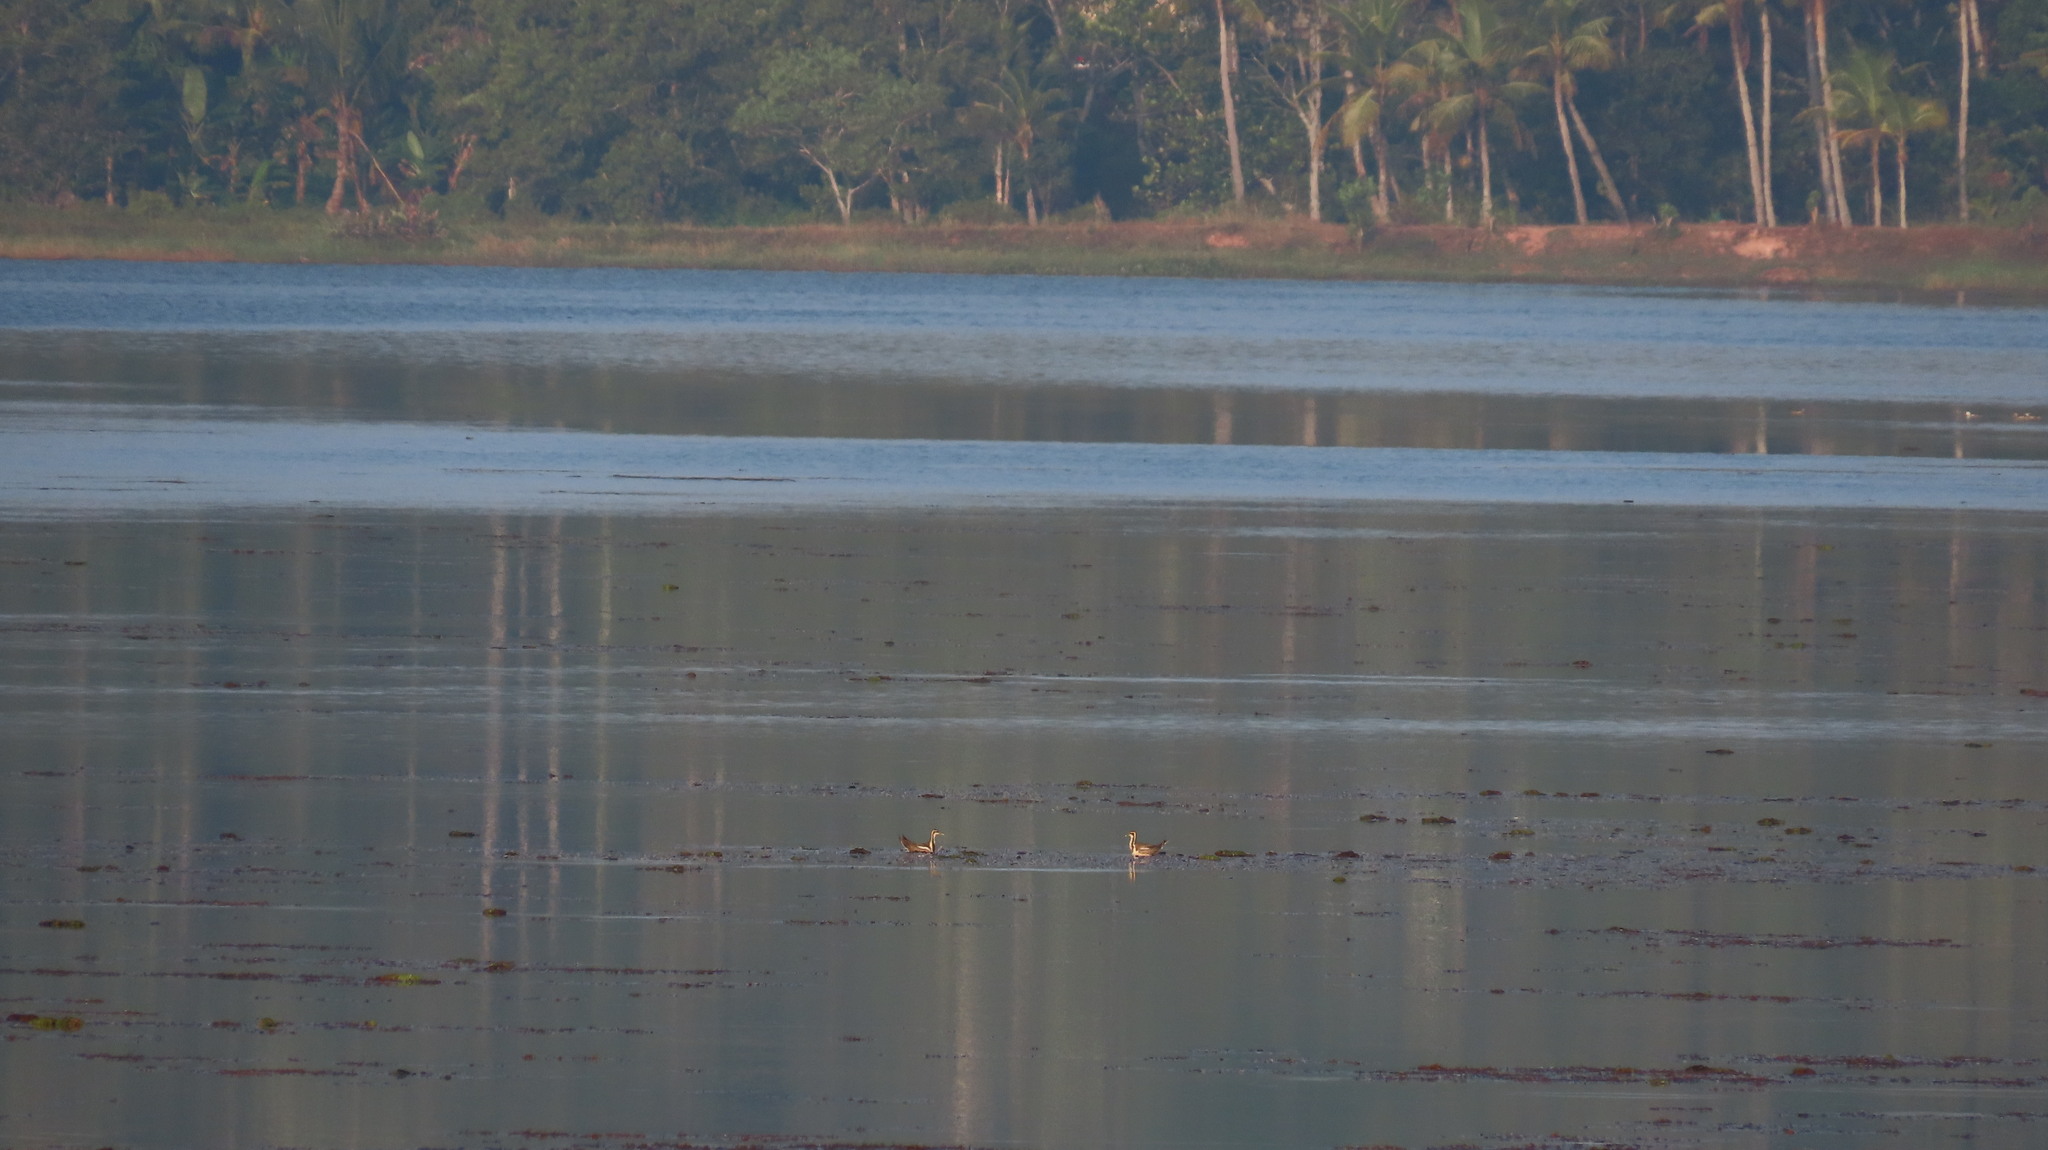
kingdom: Animalia
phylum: Chordata
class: Aves
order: Charadriiformes
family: Jacanidae
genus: Hydrophasianus
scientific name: Hydrophasianus chirurgus
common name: Pheasant-tailed jacana
